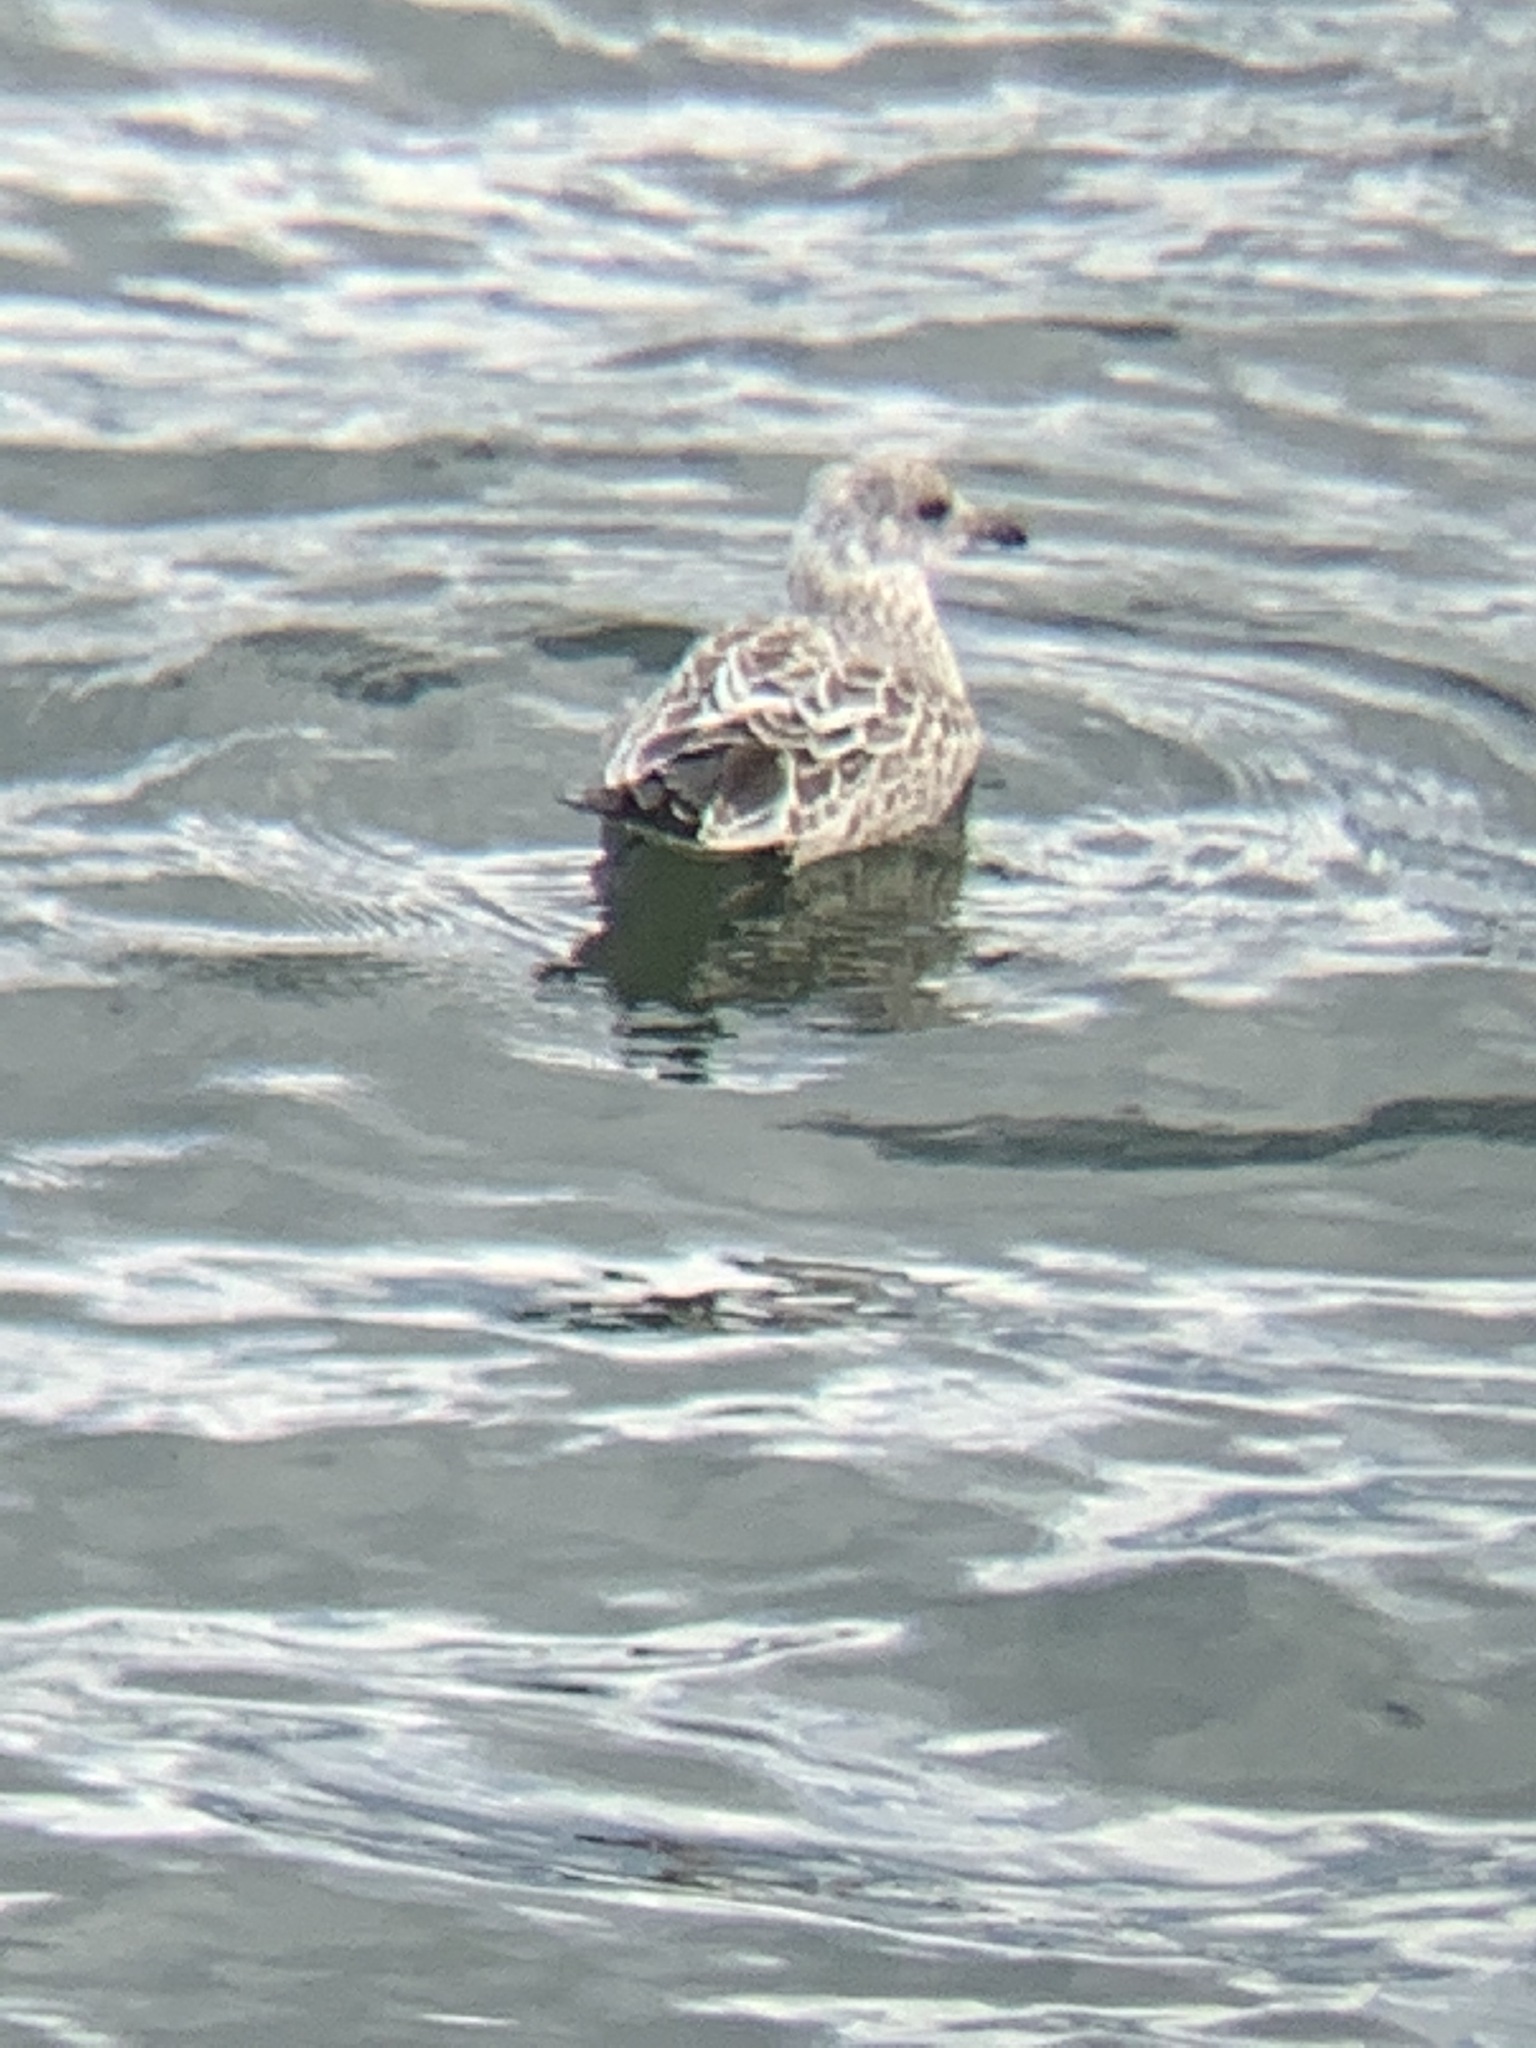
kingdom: Animalia
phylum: Chordata
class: Aves
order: Charadriiformes
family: Laridae
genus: Larus
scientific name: Larus delawarensis
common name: Ring-billed gull
